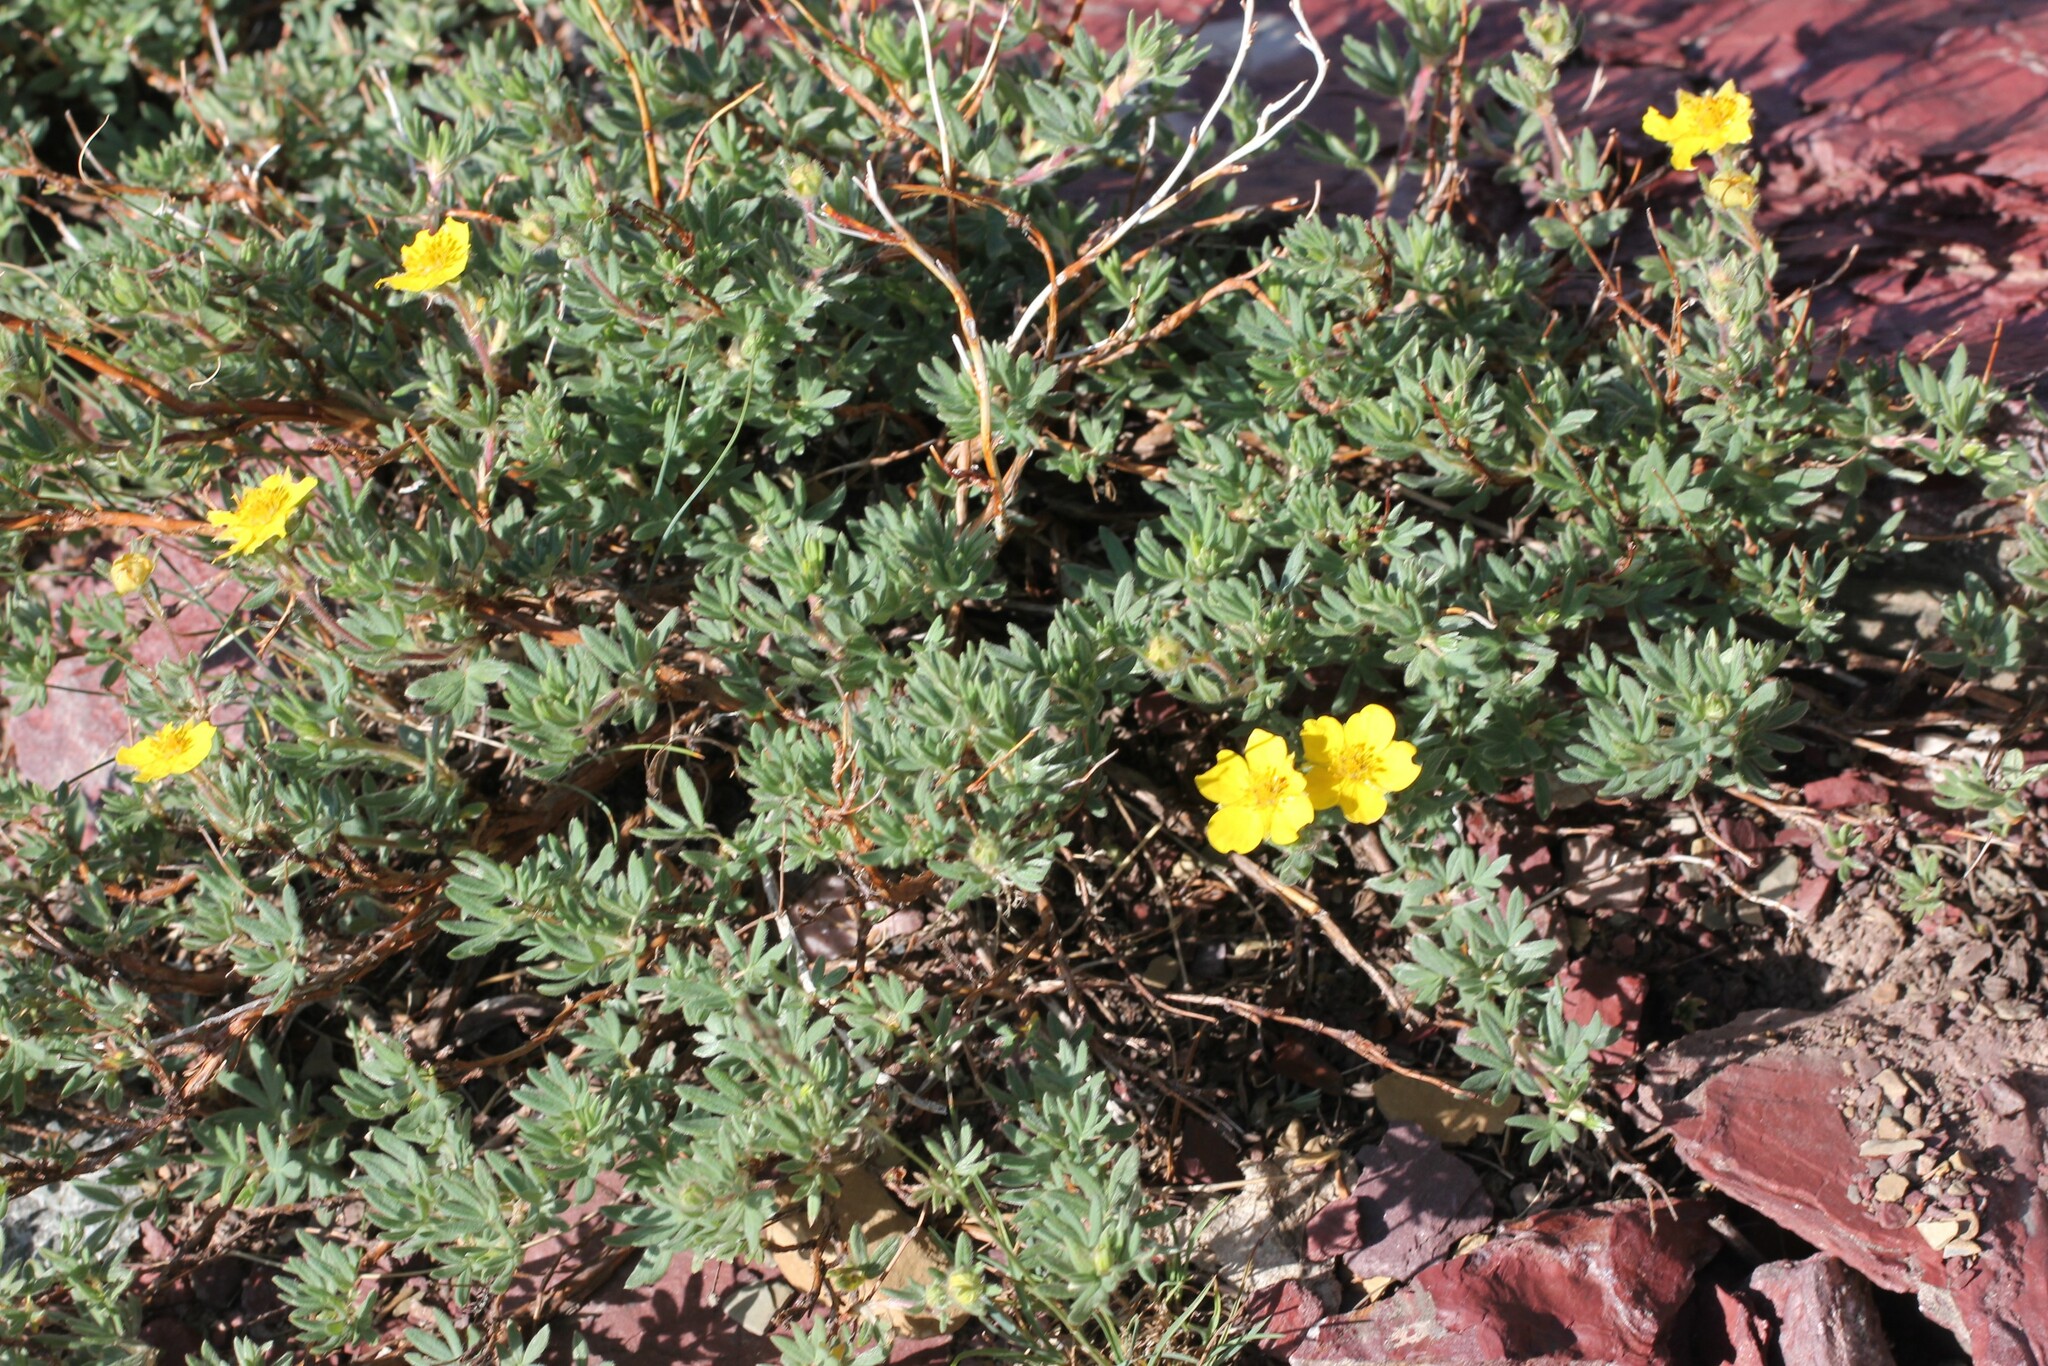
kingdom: Plantae
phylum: Tracheophyta
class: Magnoliopsida
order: Rosales
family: Rosaceae
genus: Dasiphora
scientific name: Dasiphora fruticosa
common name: Shrubby cinquefoil
